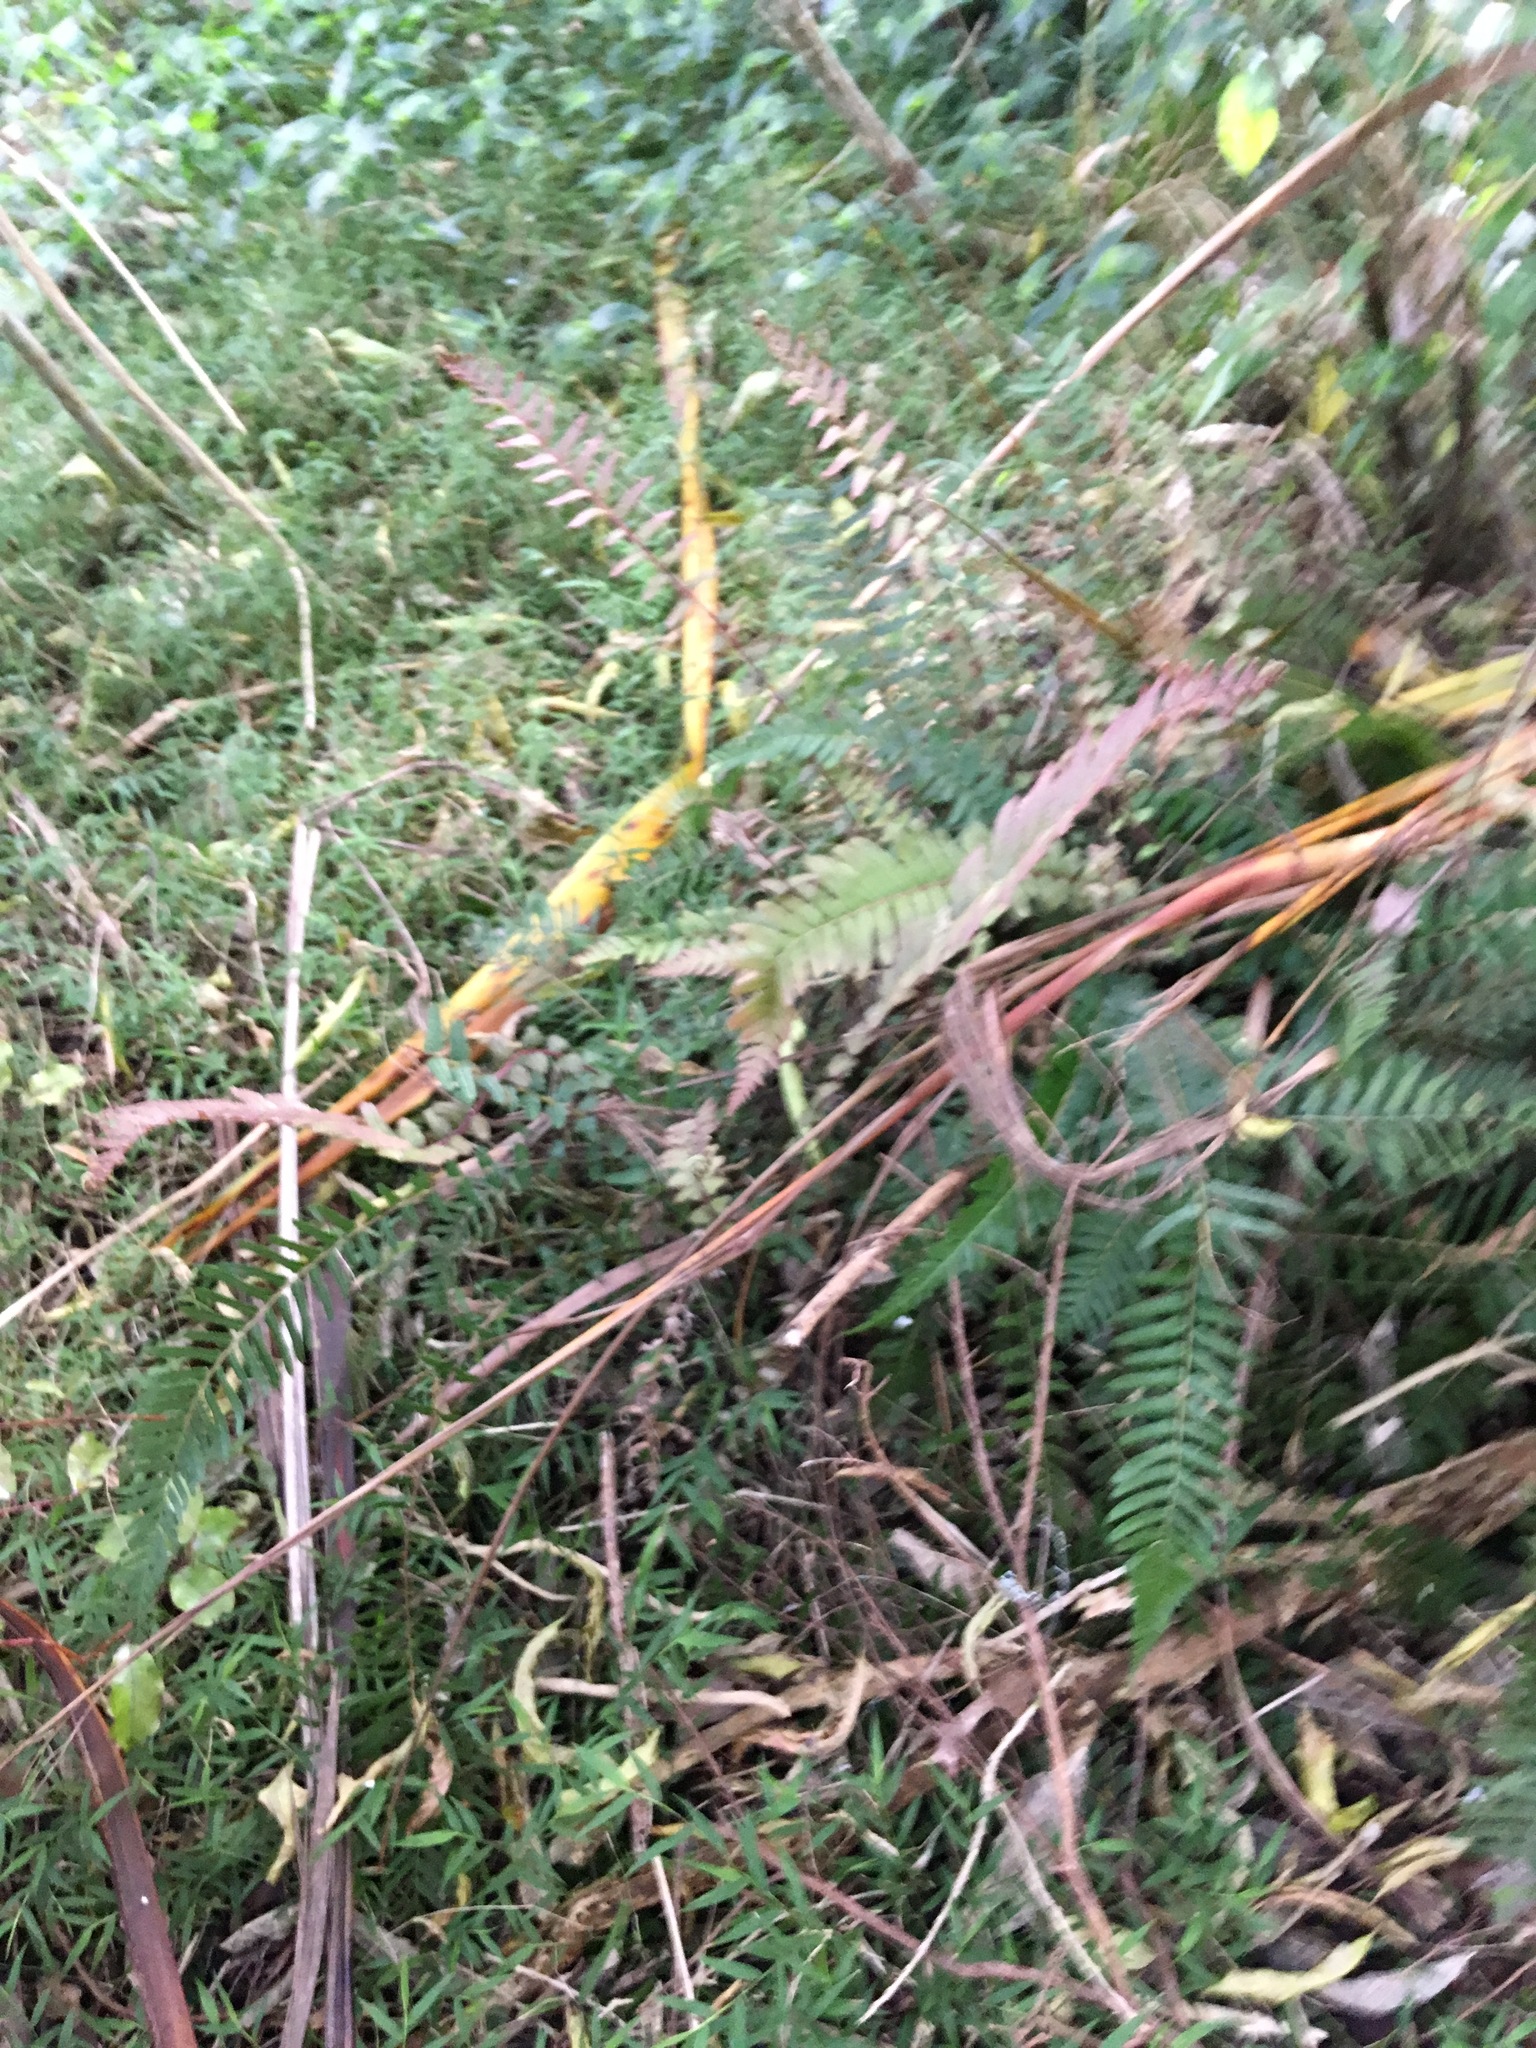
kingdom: Plantae
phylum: Tracheophyta
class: Polypodiopsida
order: Polypodiales
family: Blechnaceae
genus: Doodia
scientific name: Doodia australis
